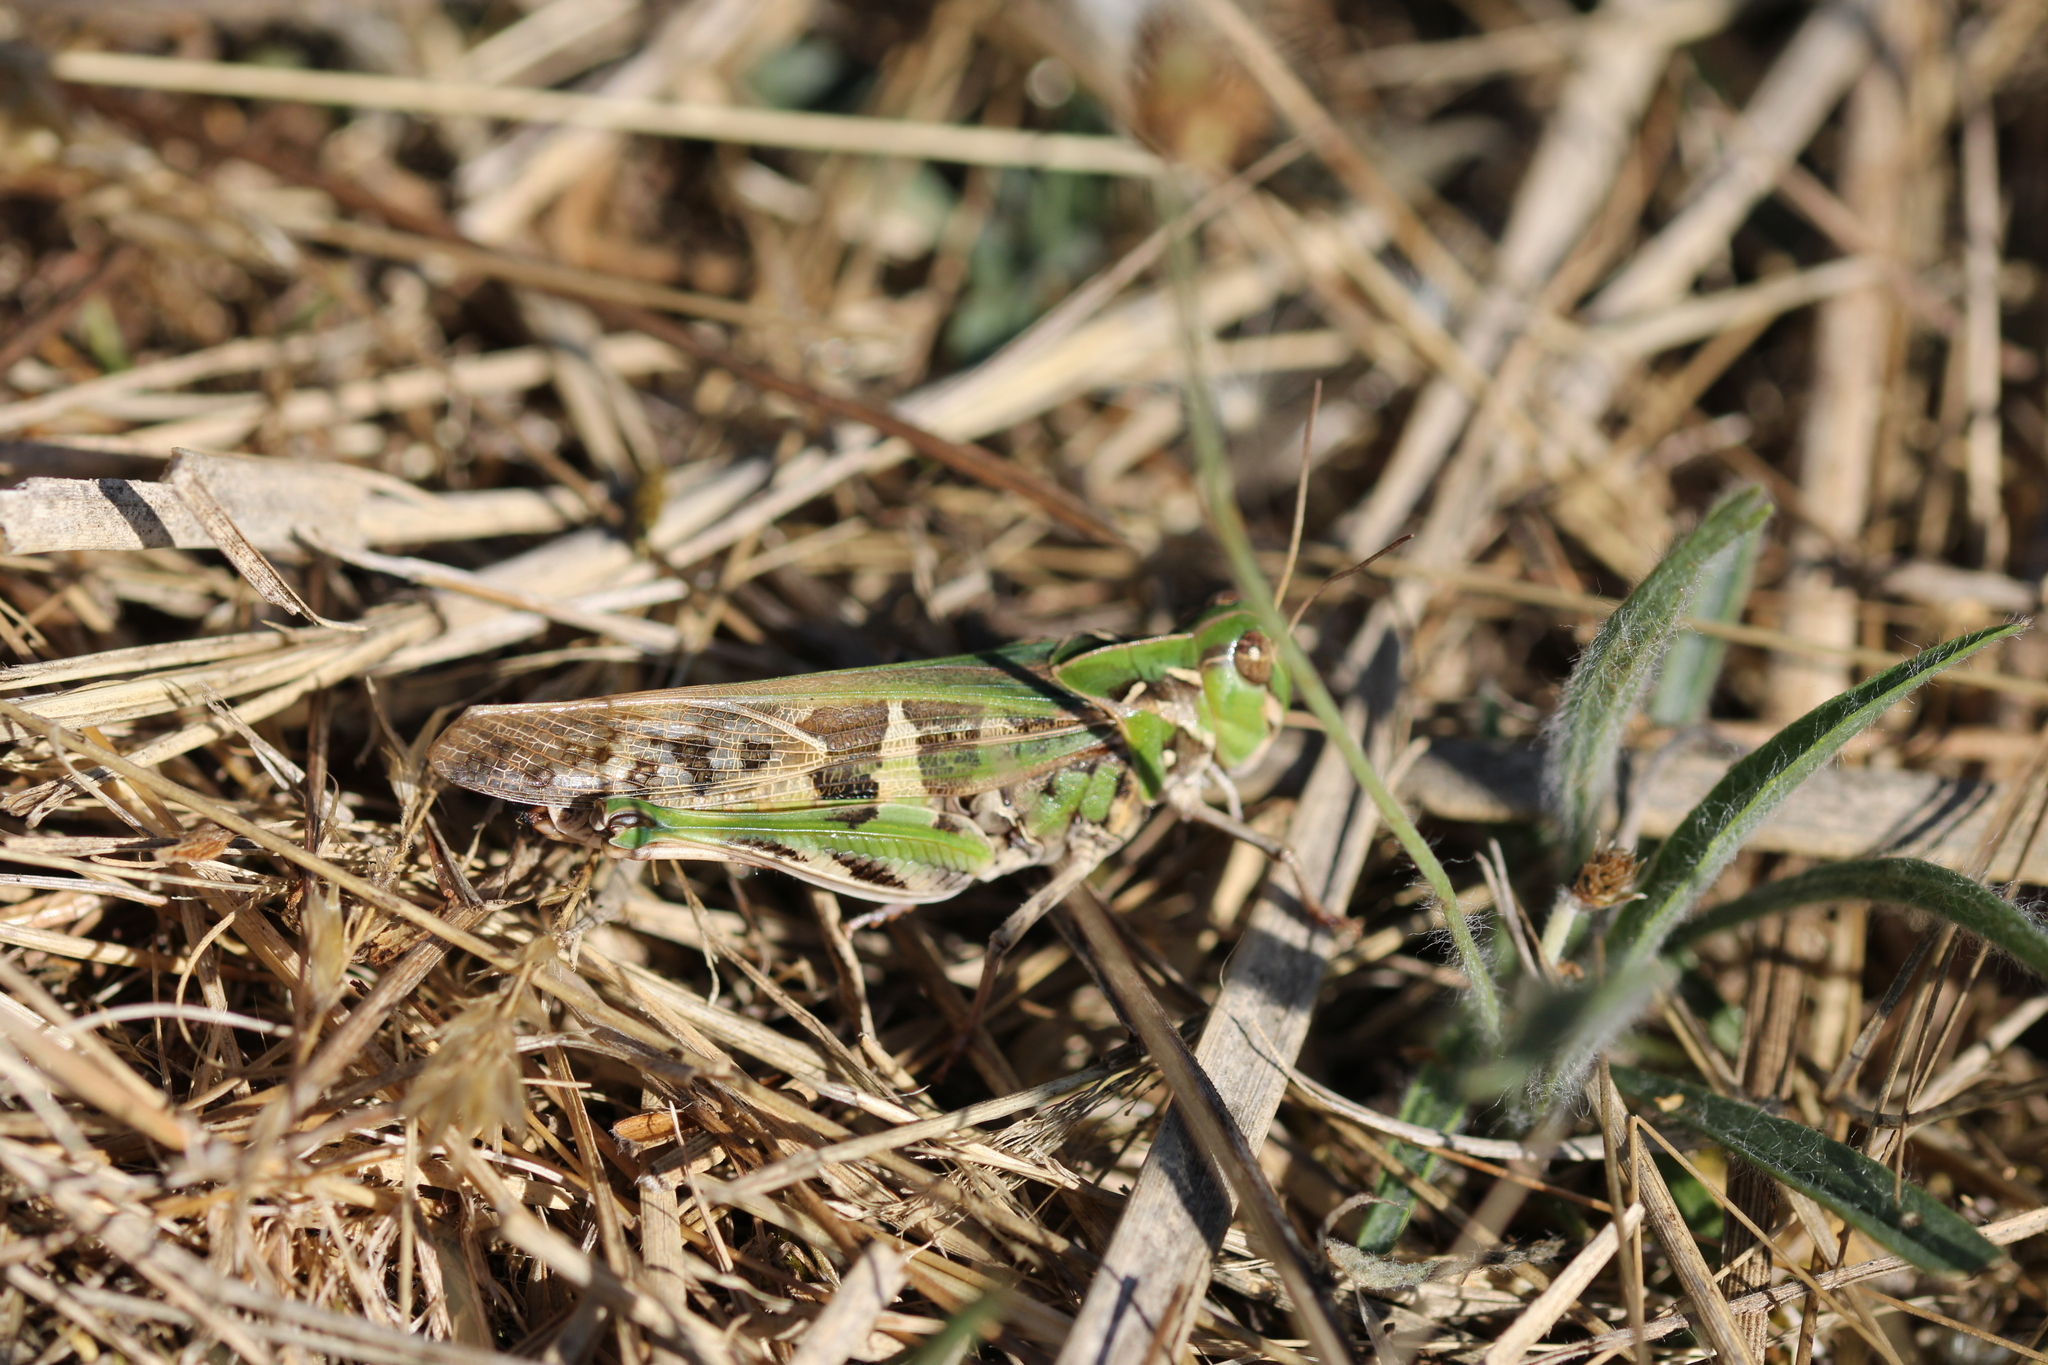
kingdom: Animalia
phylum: Arthropoda
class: Insecta
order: Orthoptera
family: Acrididae
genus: Oedaleus
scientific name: Oedaleus decorus
